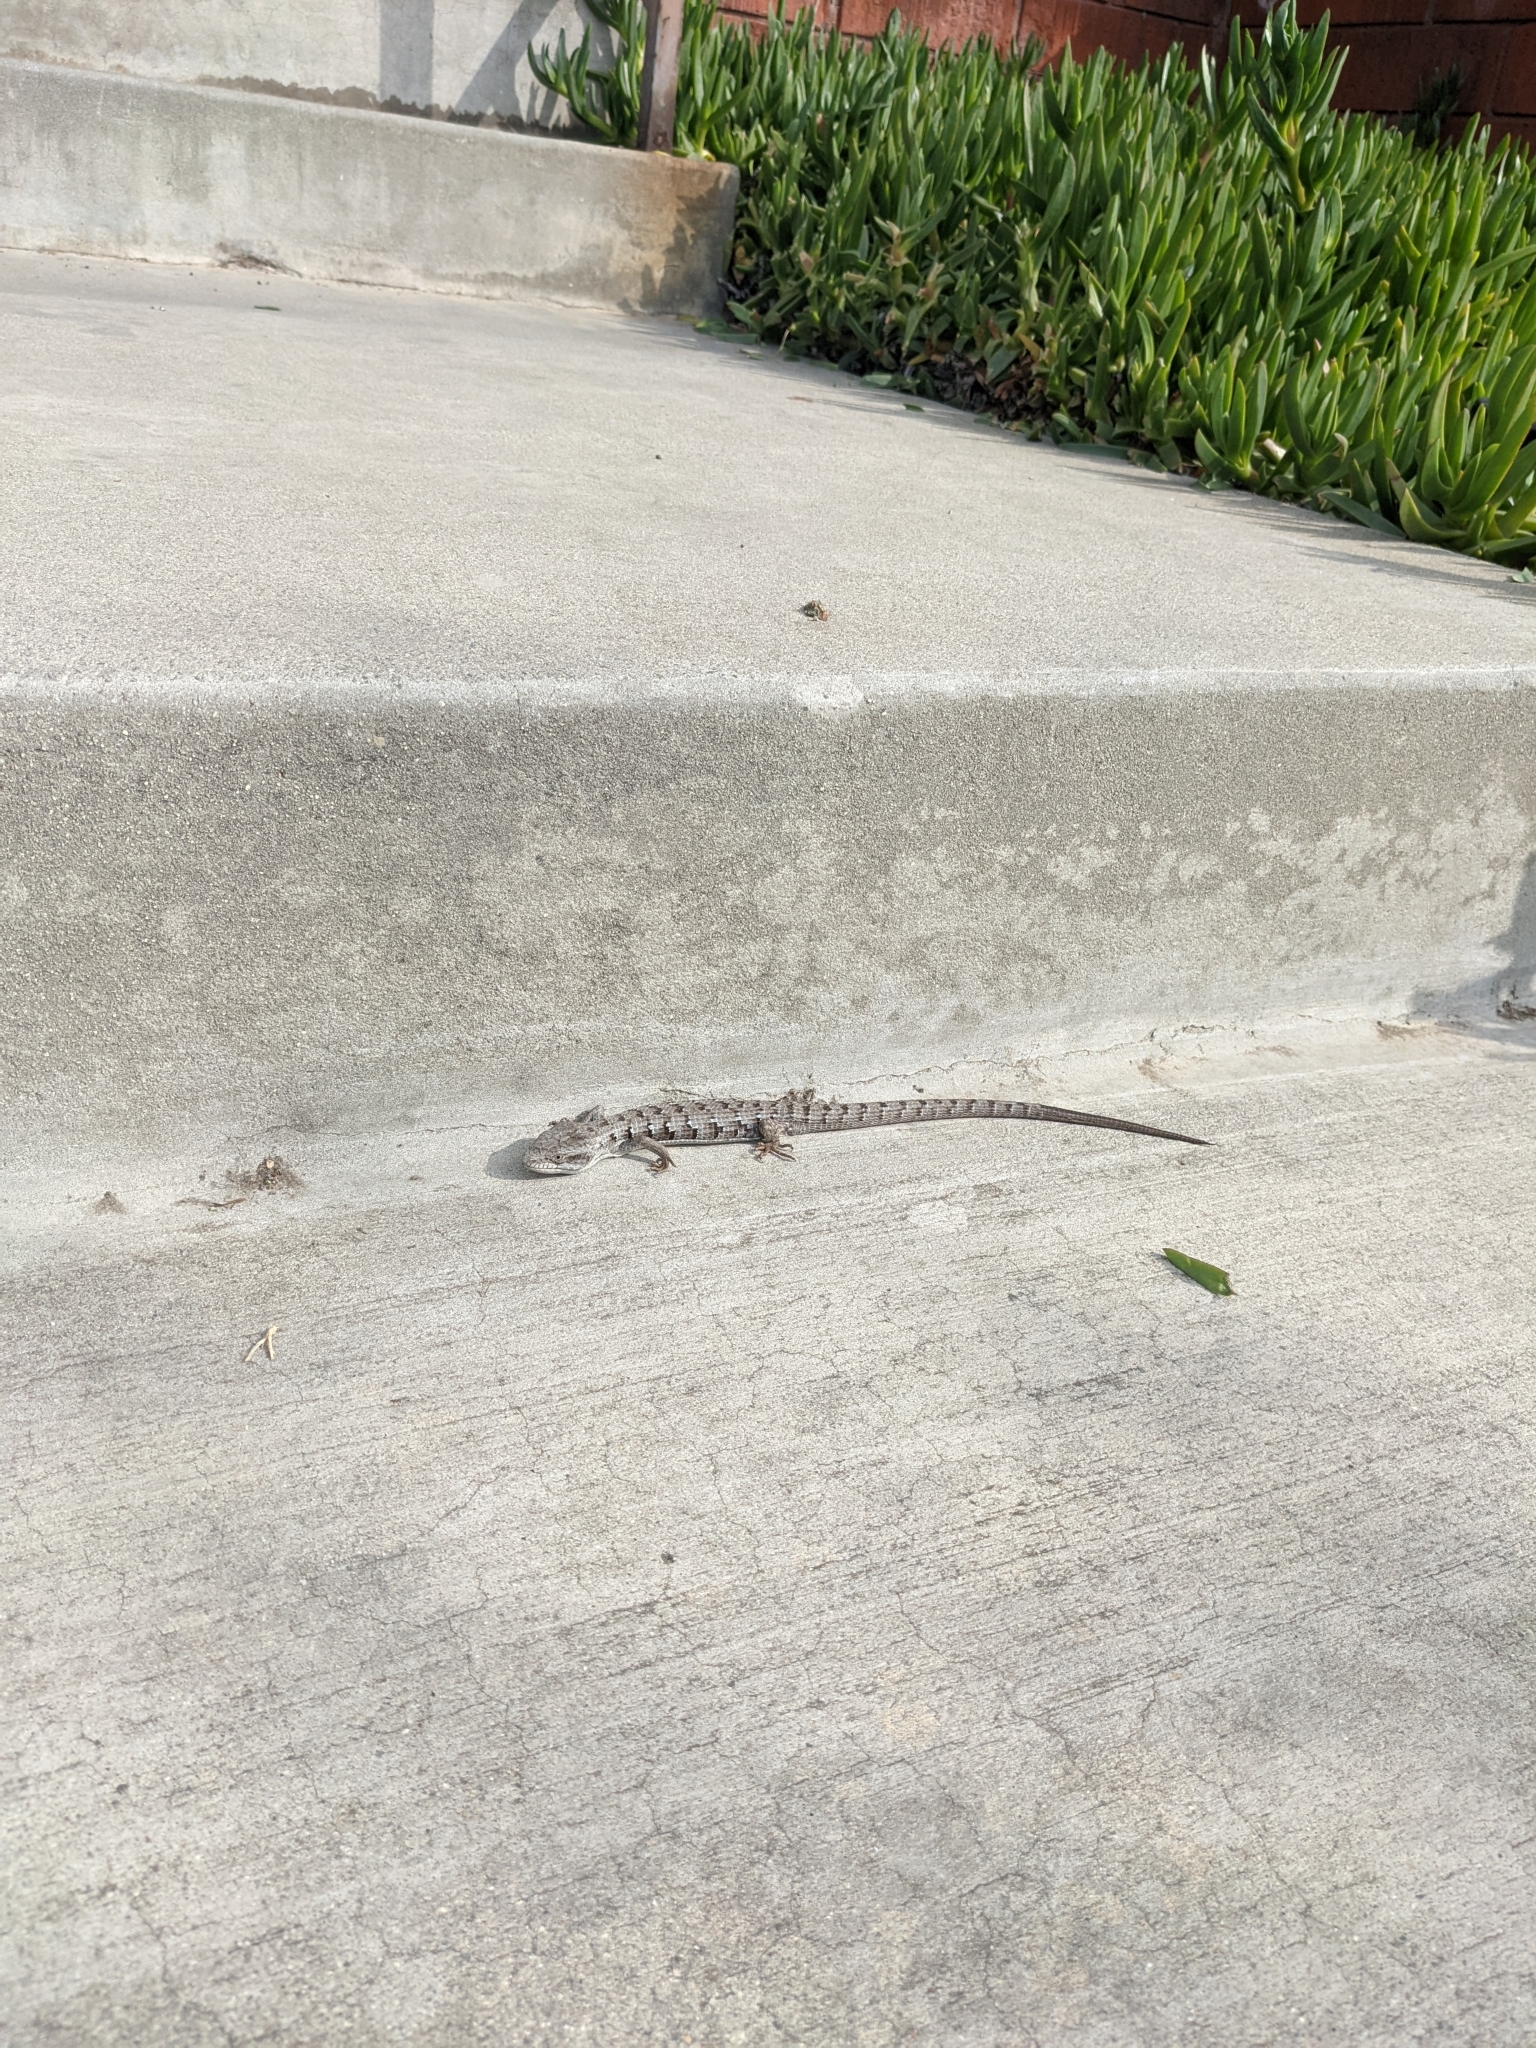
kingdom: Animalia
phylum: Chordata
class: Squamata
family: Anguidae
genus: Elgaria
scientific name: Elgaria multicarinata
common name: Southern alligator lizard
